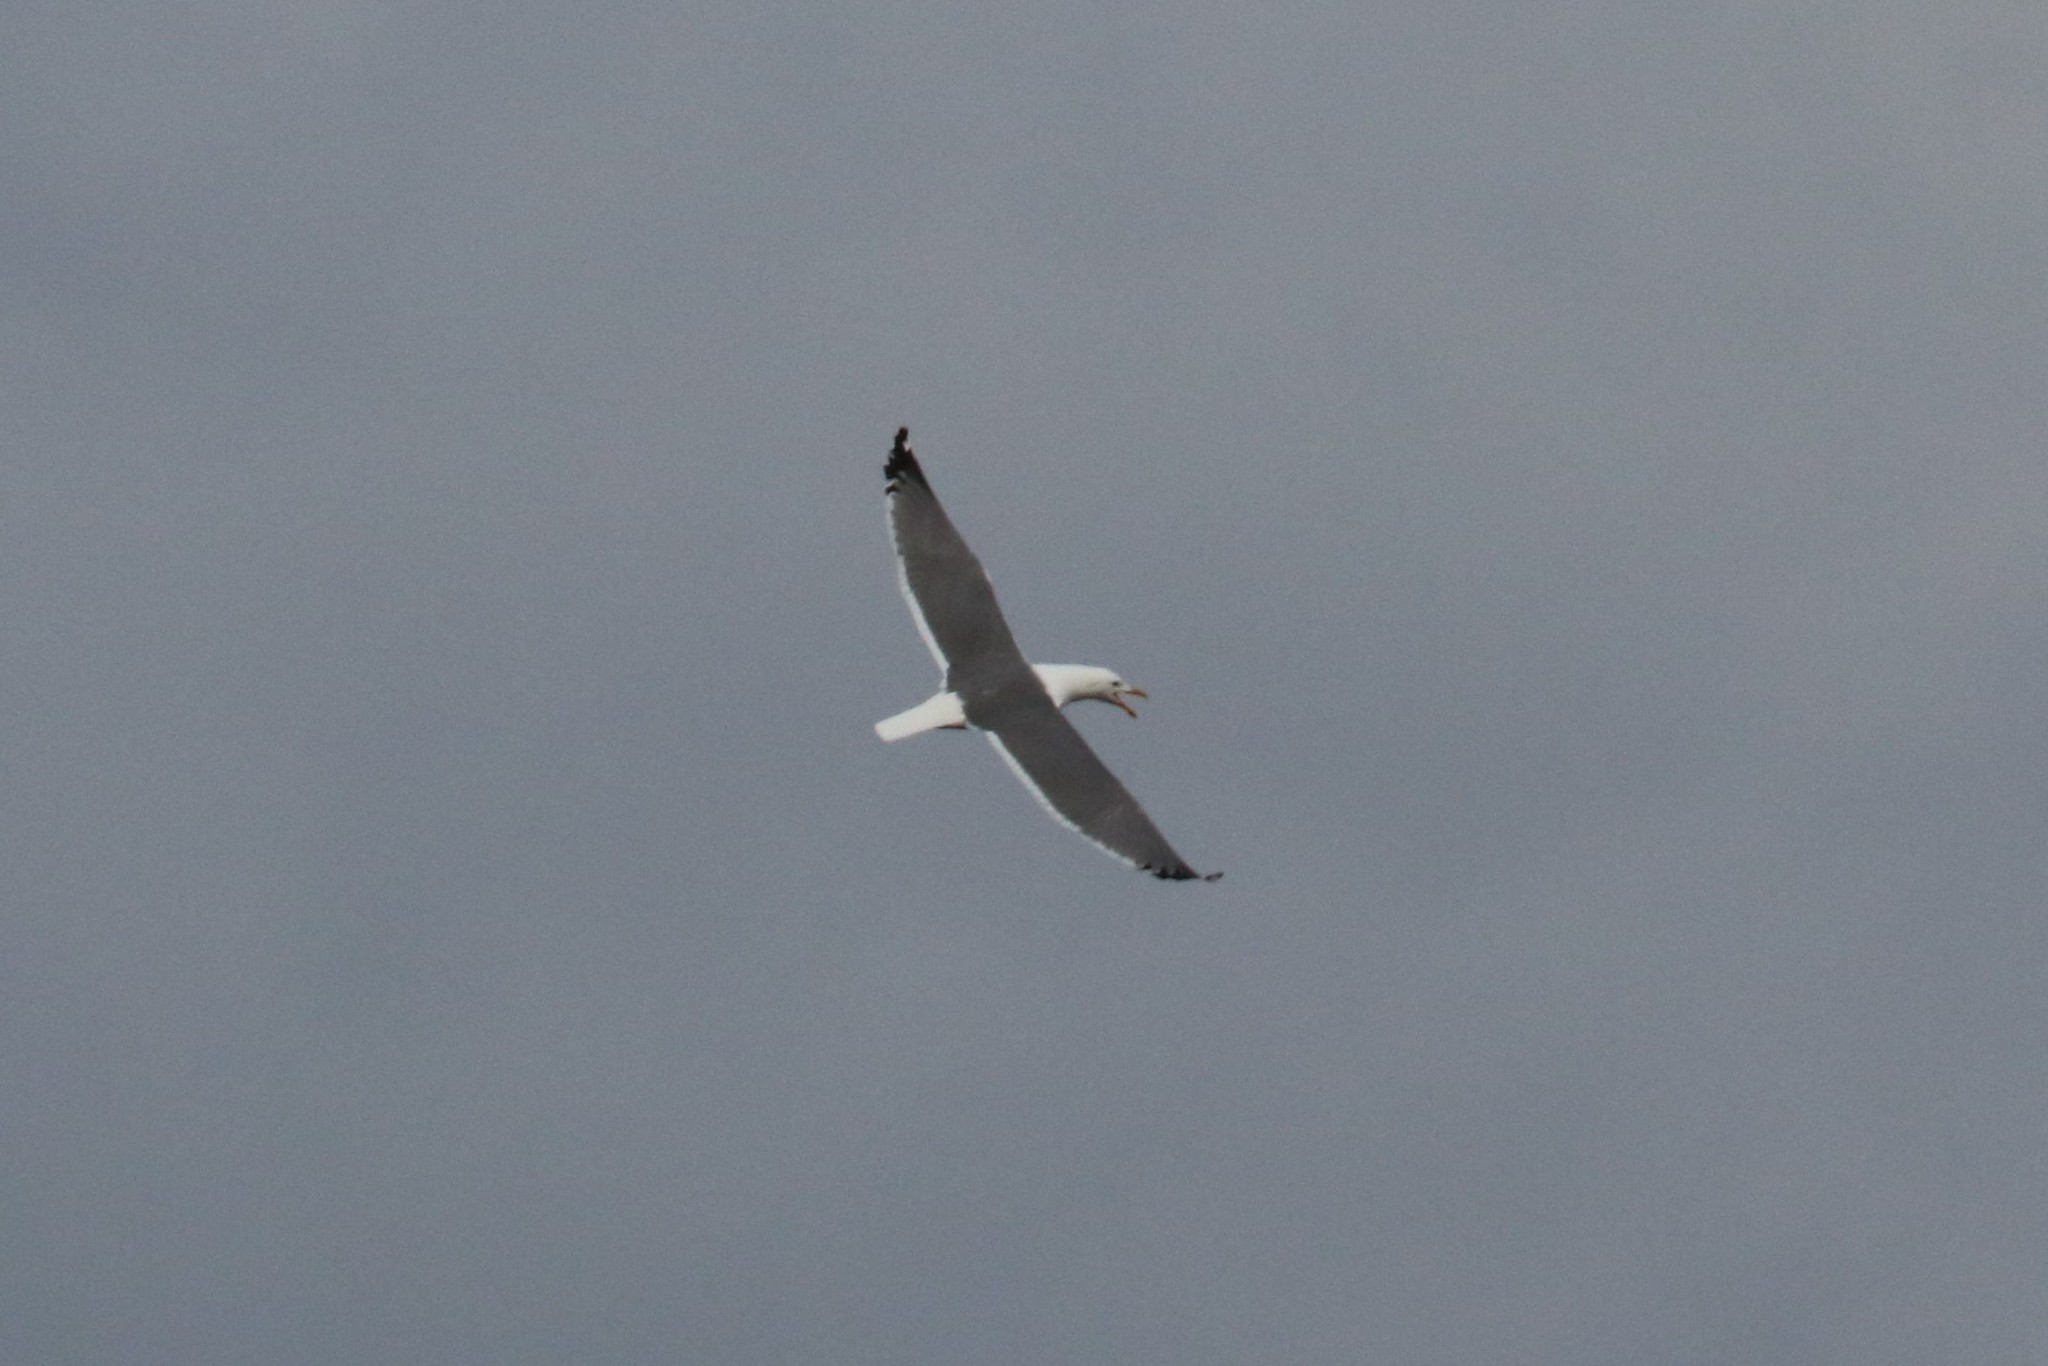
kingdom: Animalia
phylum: Chordata
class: Aves
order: Charadriiformes
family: Laridae
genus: Larus
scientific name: Larus fuscus
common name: Lesser black-backed gull
